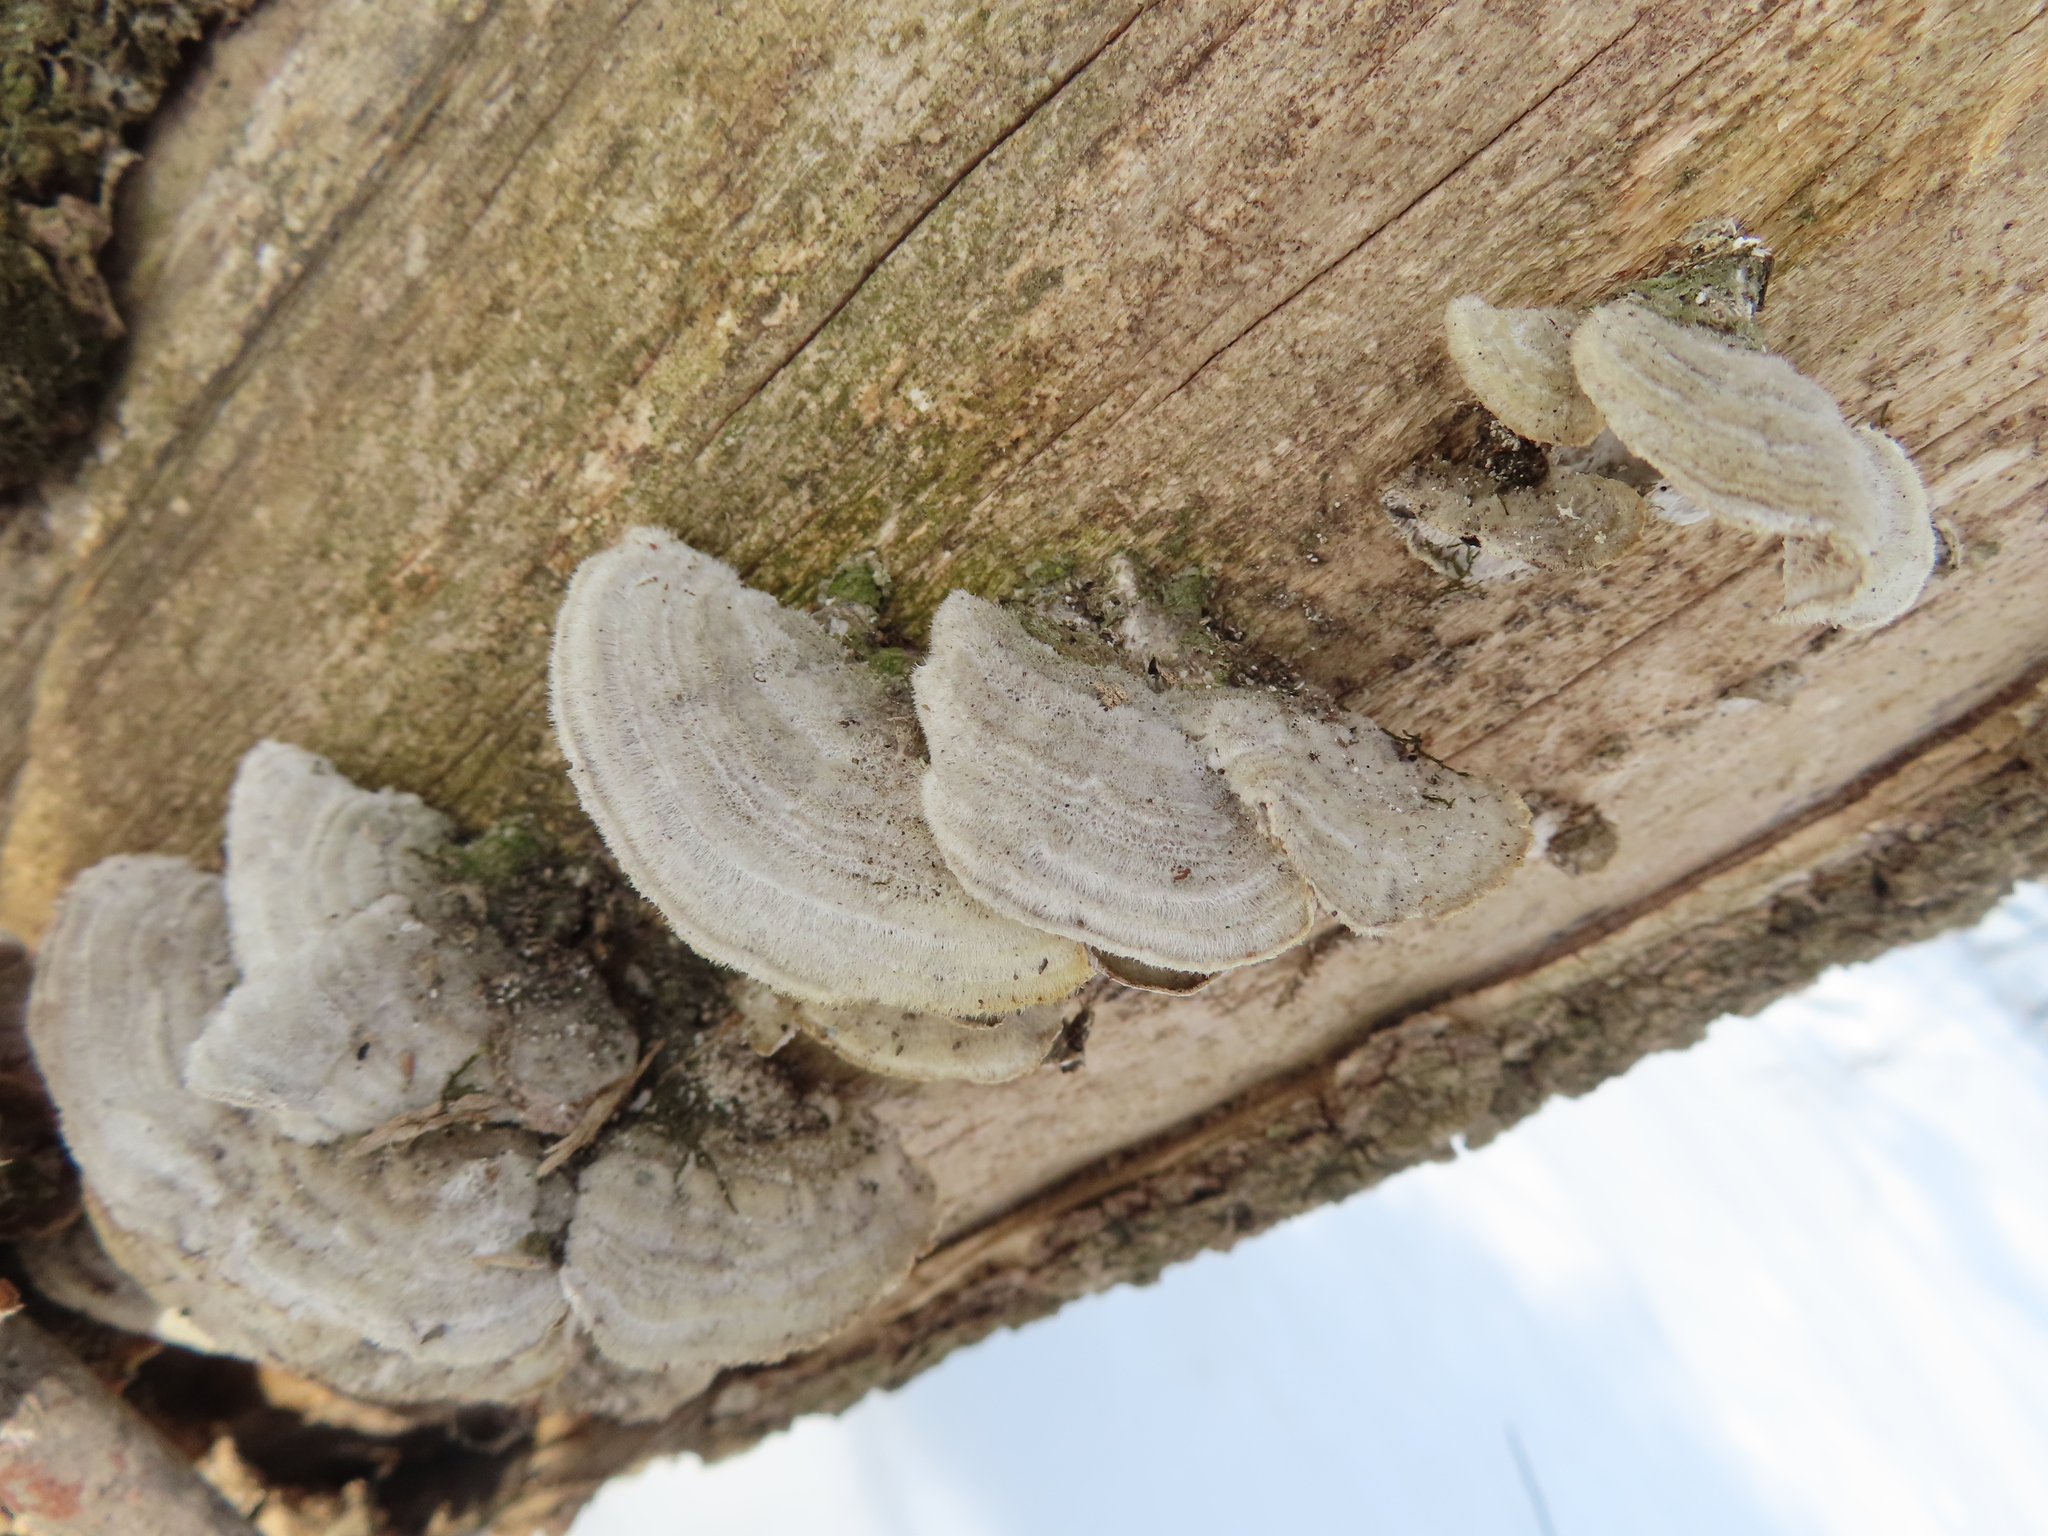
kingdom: Fungi
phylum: Basidiomycota
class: Agaricomycetes
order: Polyporales
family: Cerrenaceae
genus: Cerrena
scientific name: Cerrena unicolor
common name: Mossy maze polypore
